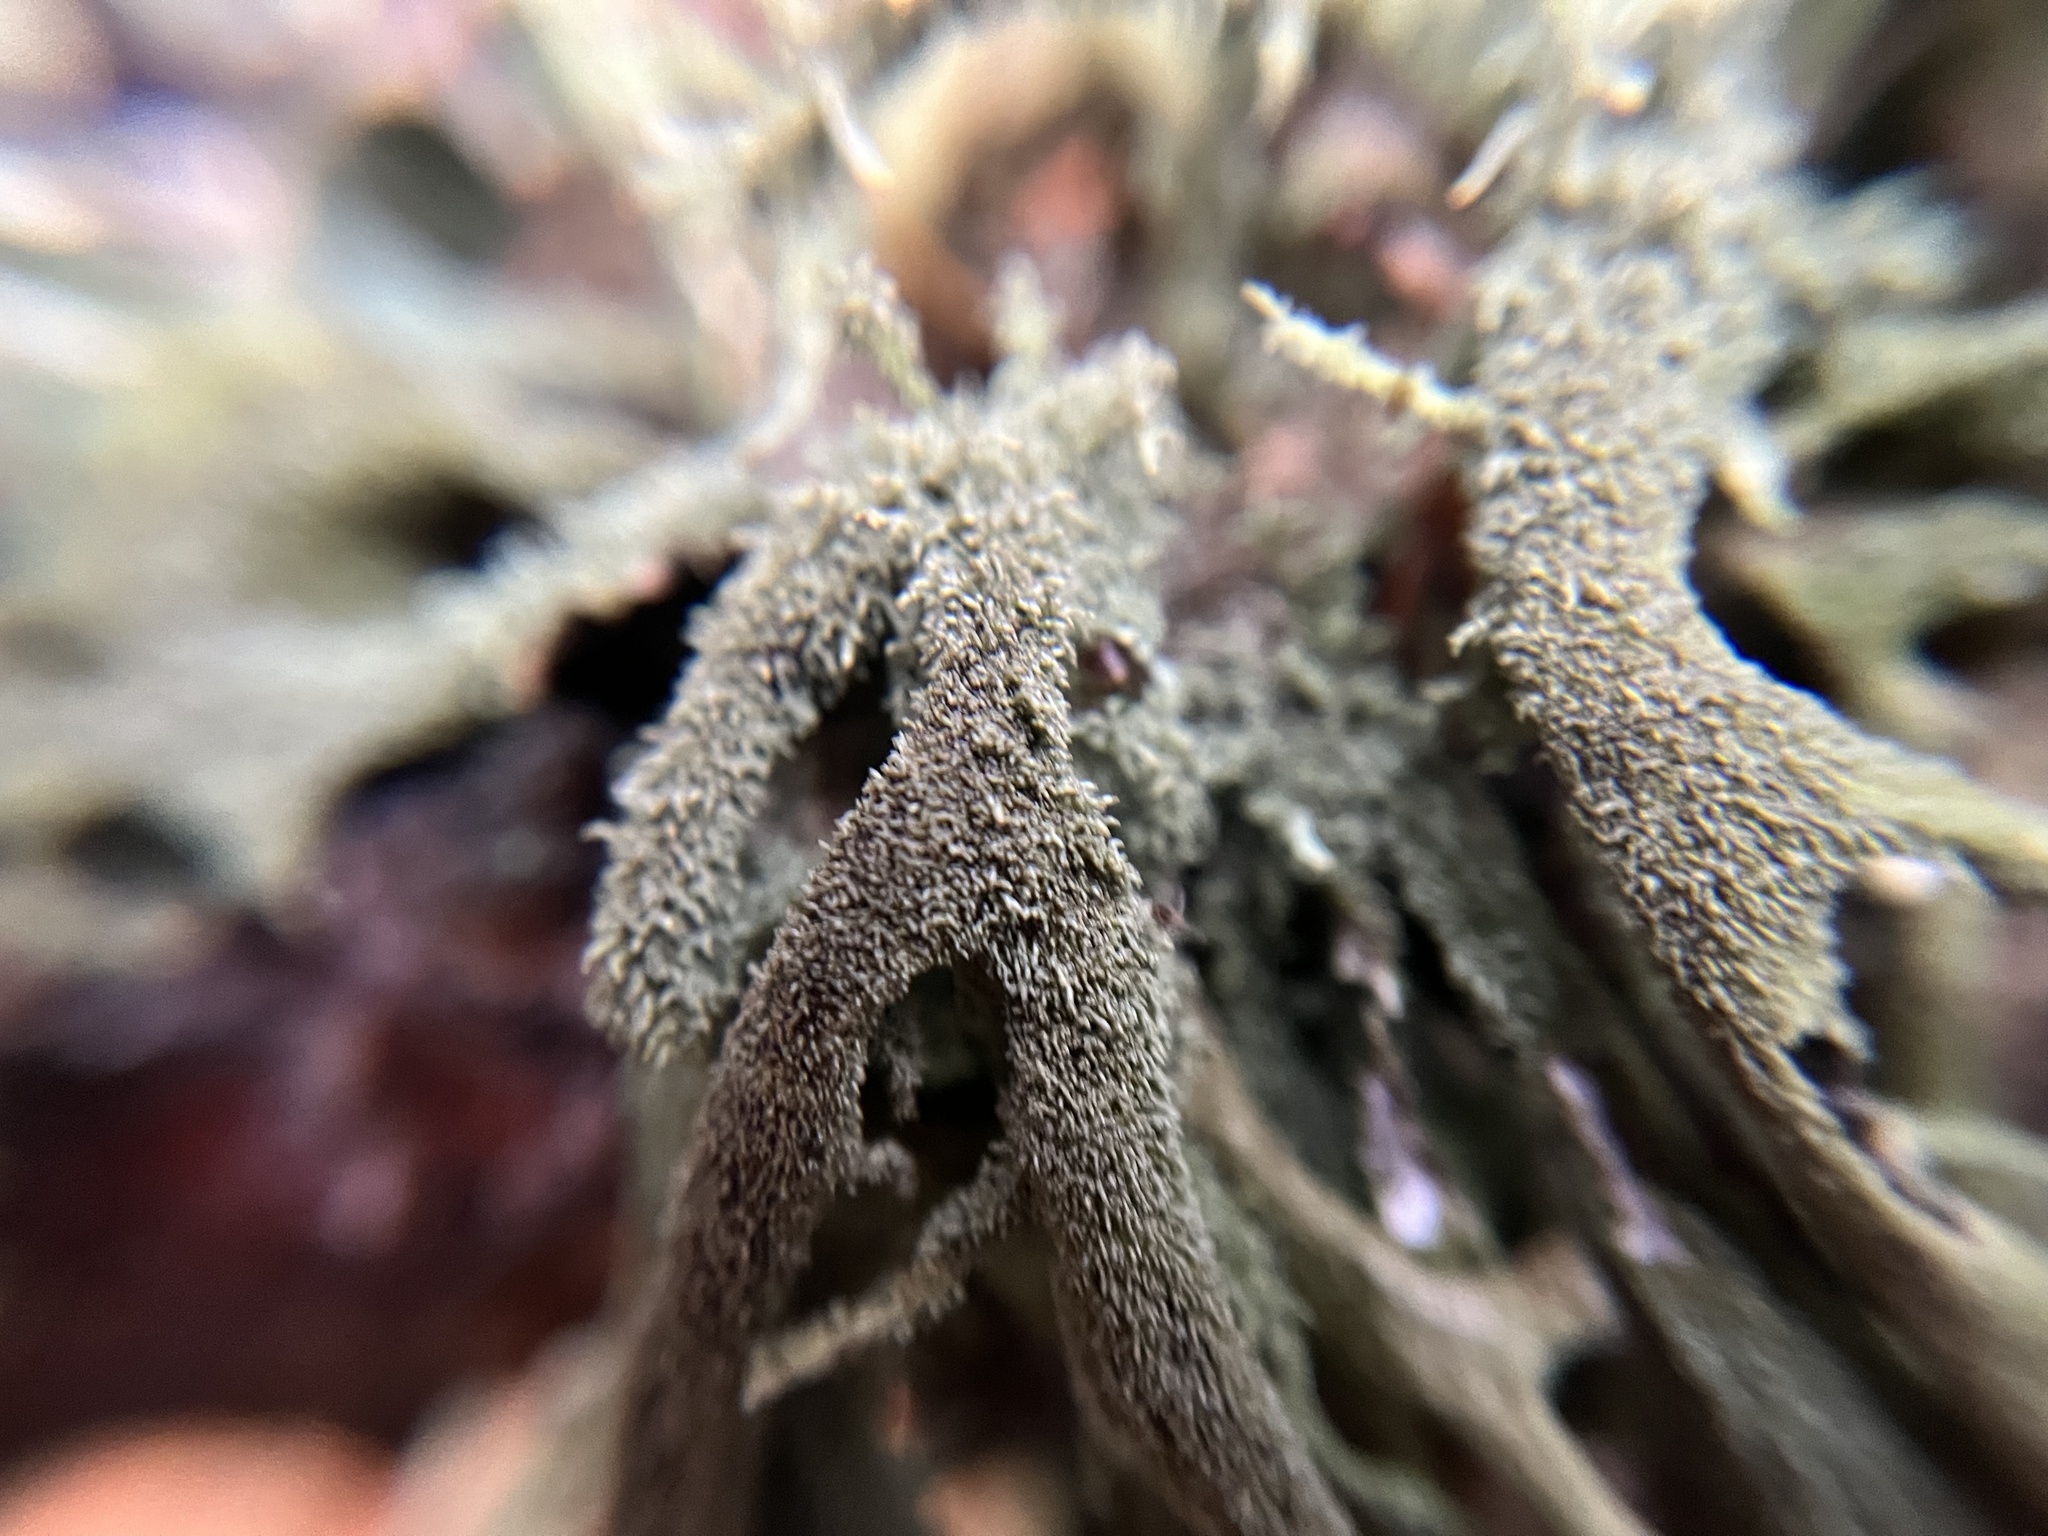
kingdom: Fungi
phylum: Ascomycota
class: Lecanoromycetes
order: Lecanorales
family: Parmeliaceae
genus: Pseudevernia
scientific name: Pseudevernia furfuracea
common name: Tree moss
